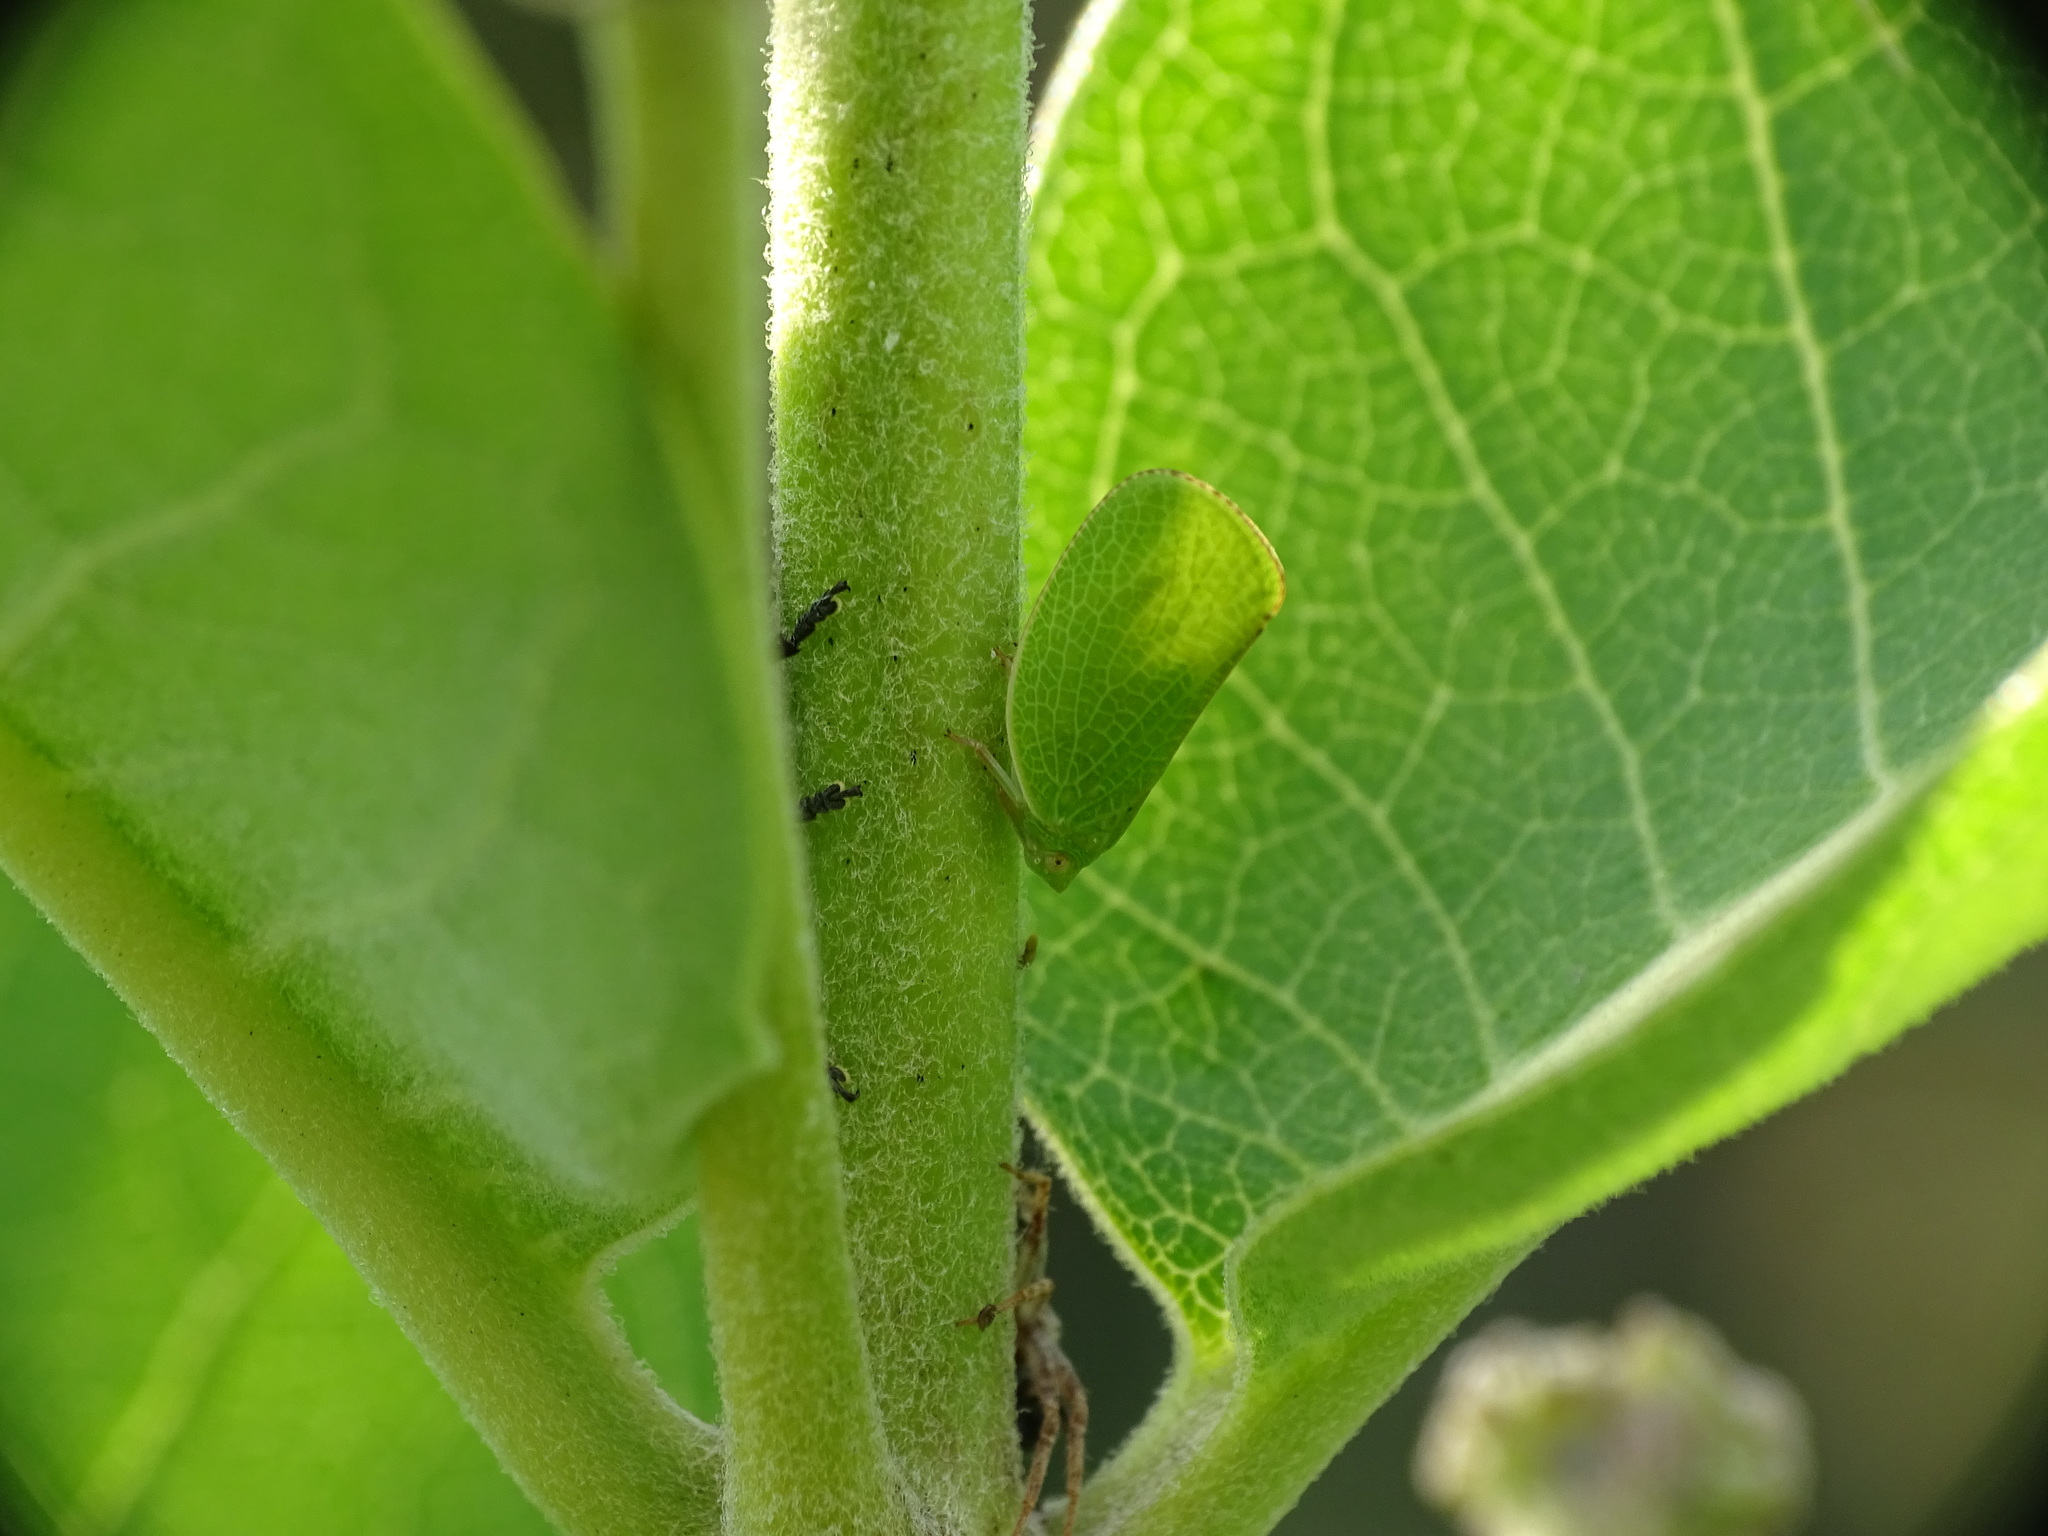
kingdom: Animalia
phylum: Arthropoda
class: Insecta
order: Hemiptera
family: Acanaloniidae
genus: Acanalonia
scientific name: Acanalonia conica
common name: Green cone-headed planthopper
